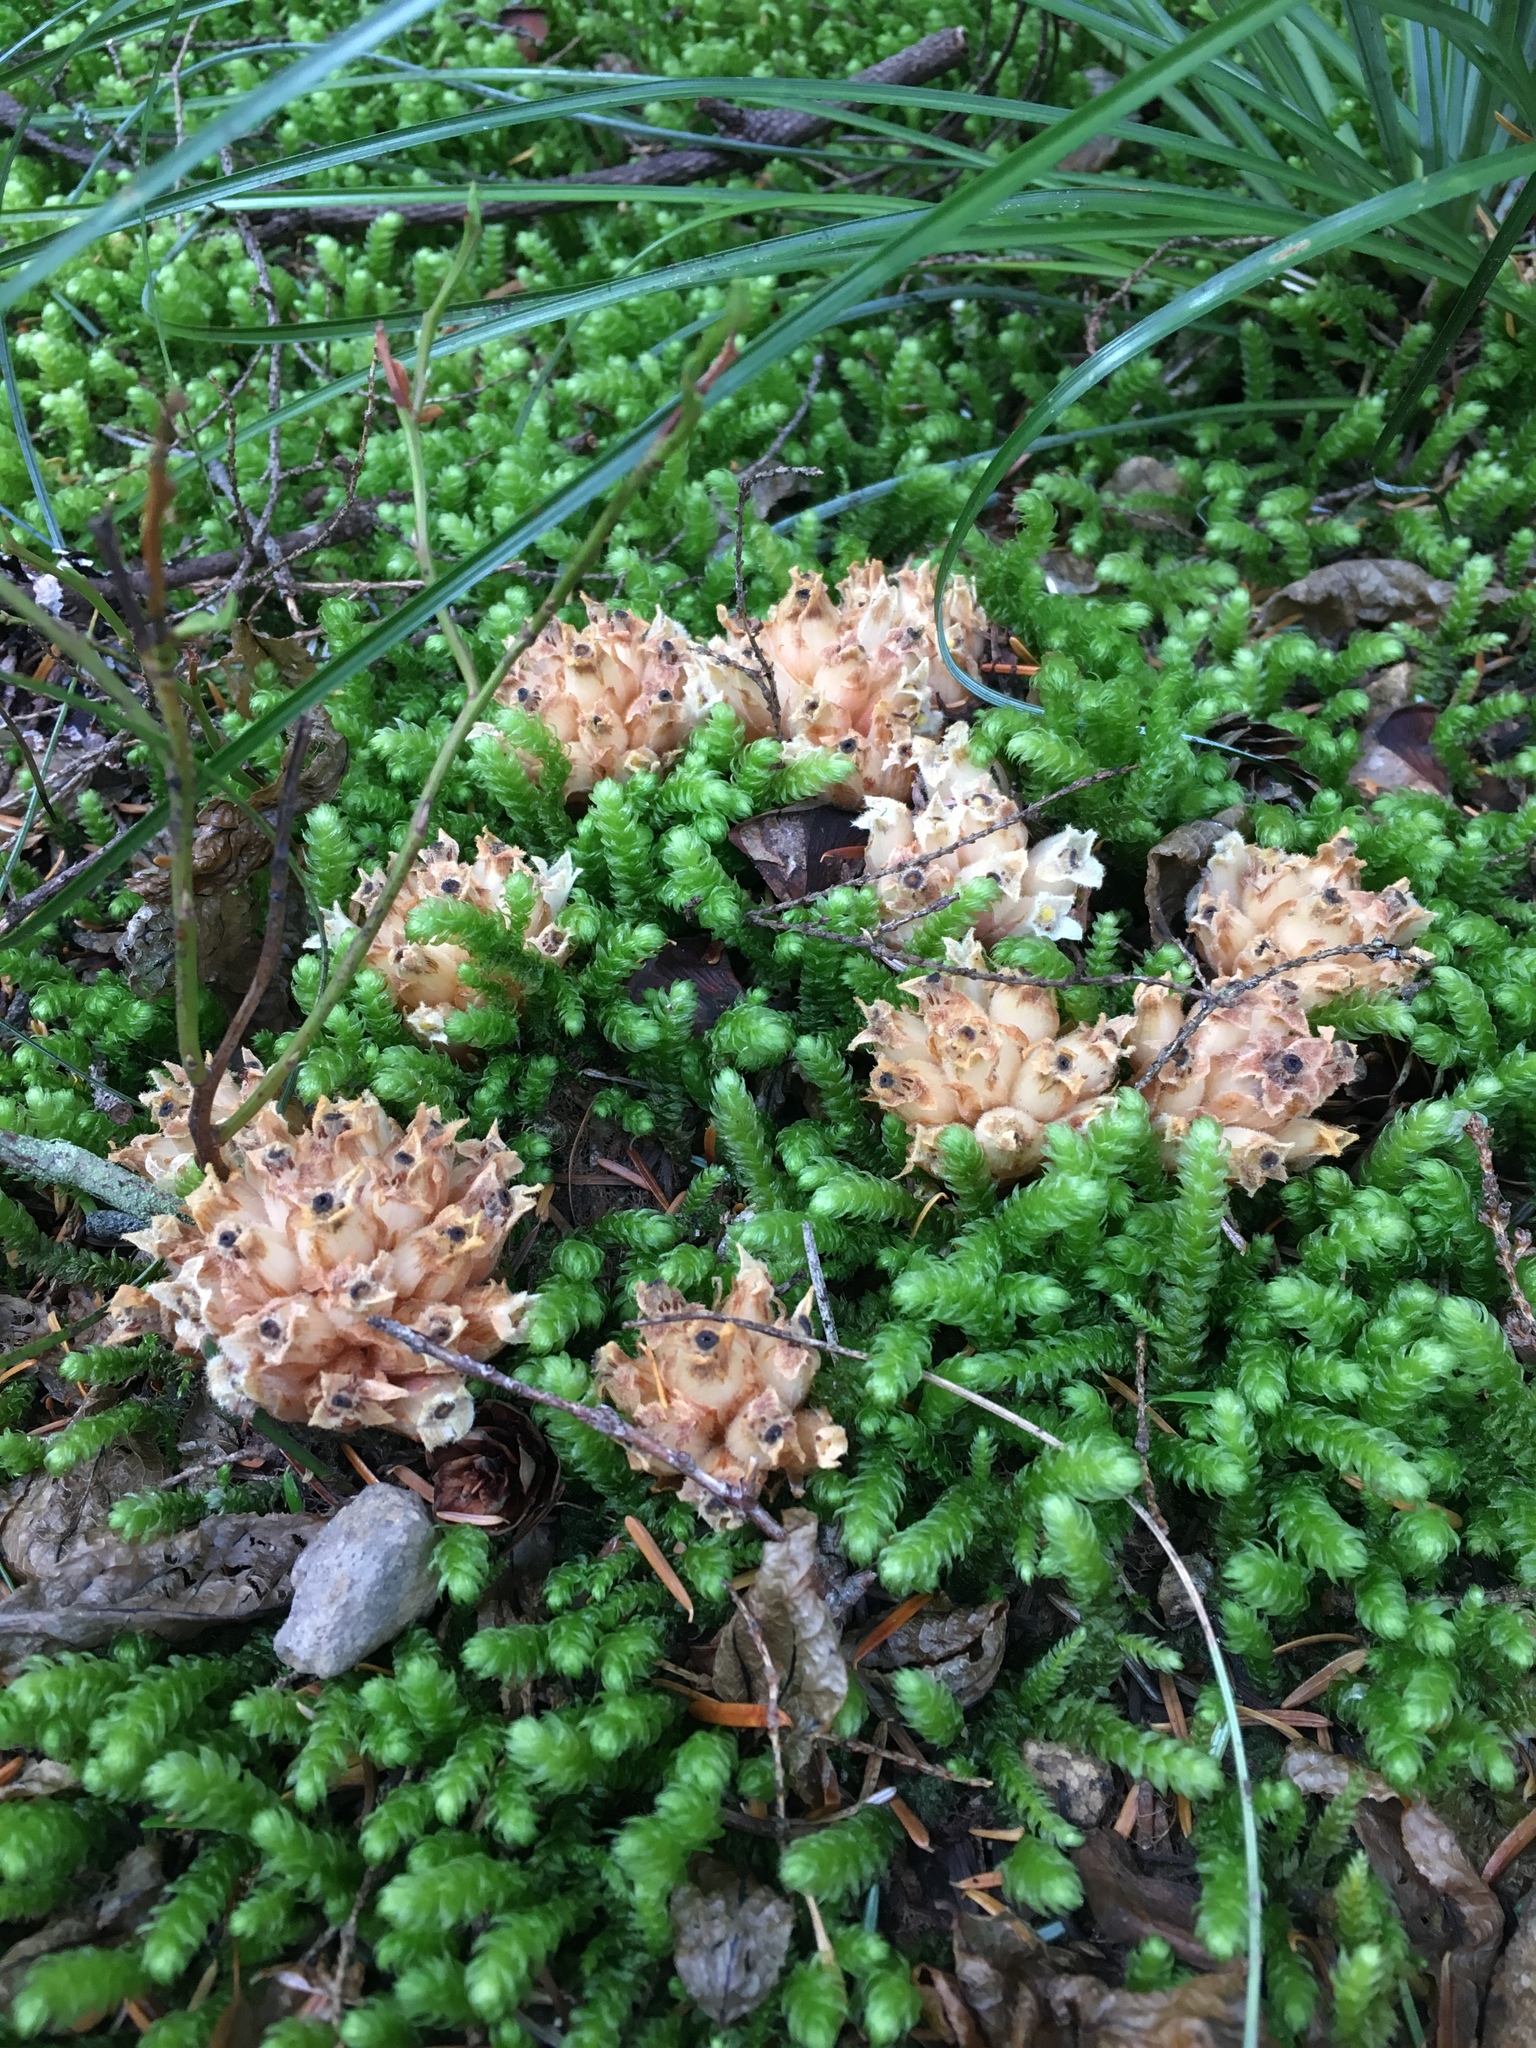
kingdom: Plantae
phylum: Tracheophyta
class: Magnoliopsida
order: Ericales
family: Ericaceae
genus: Hemitomes
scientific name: Hemitomes congestum
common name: Cone plant
